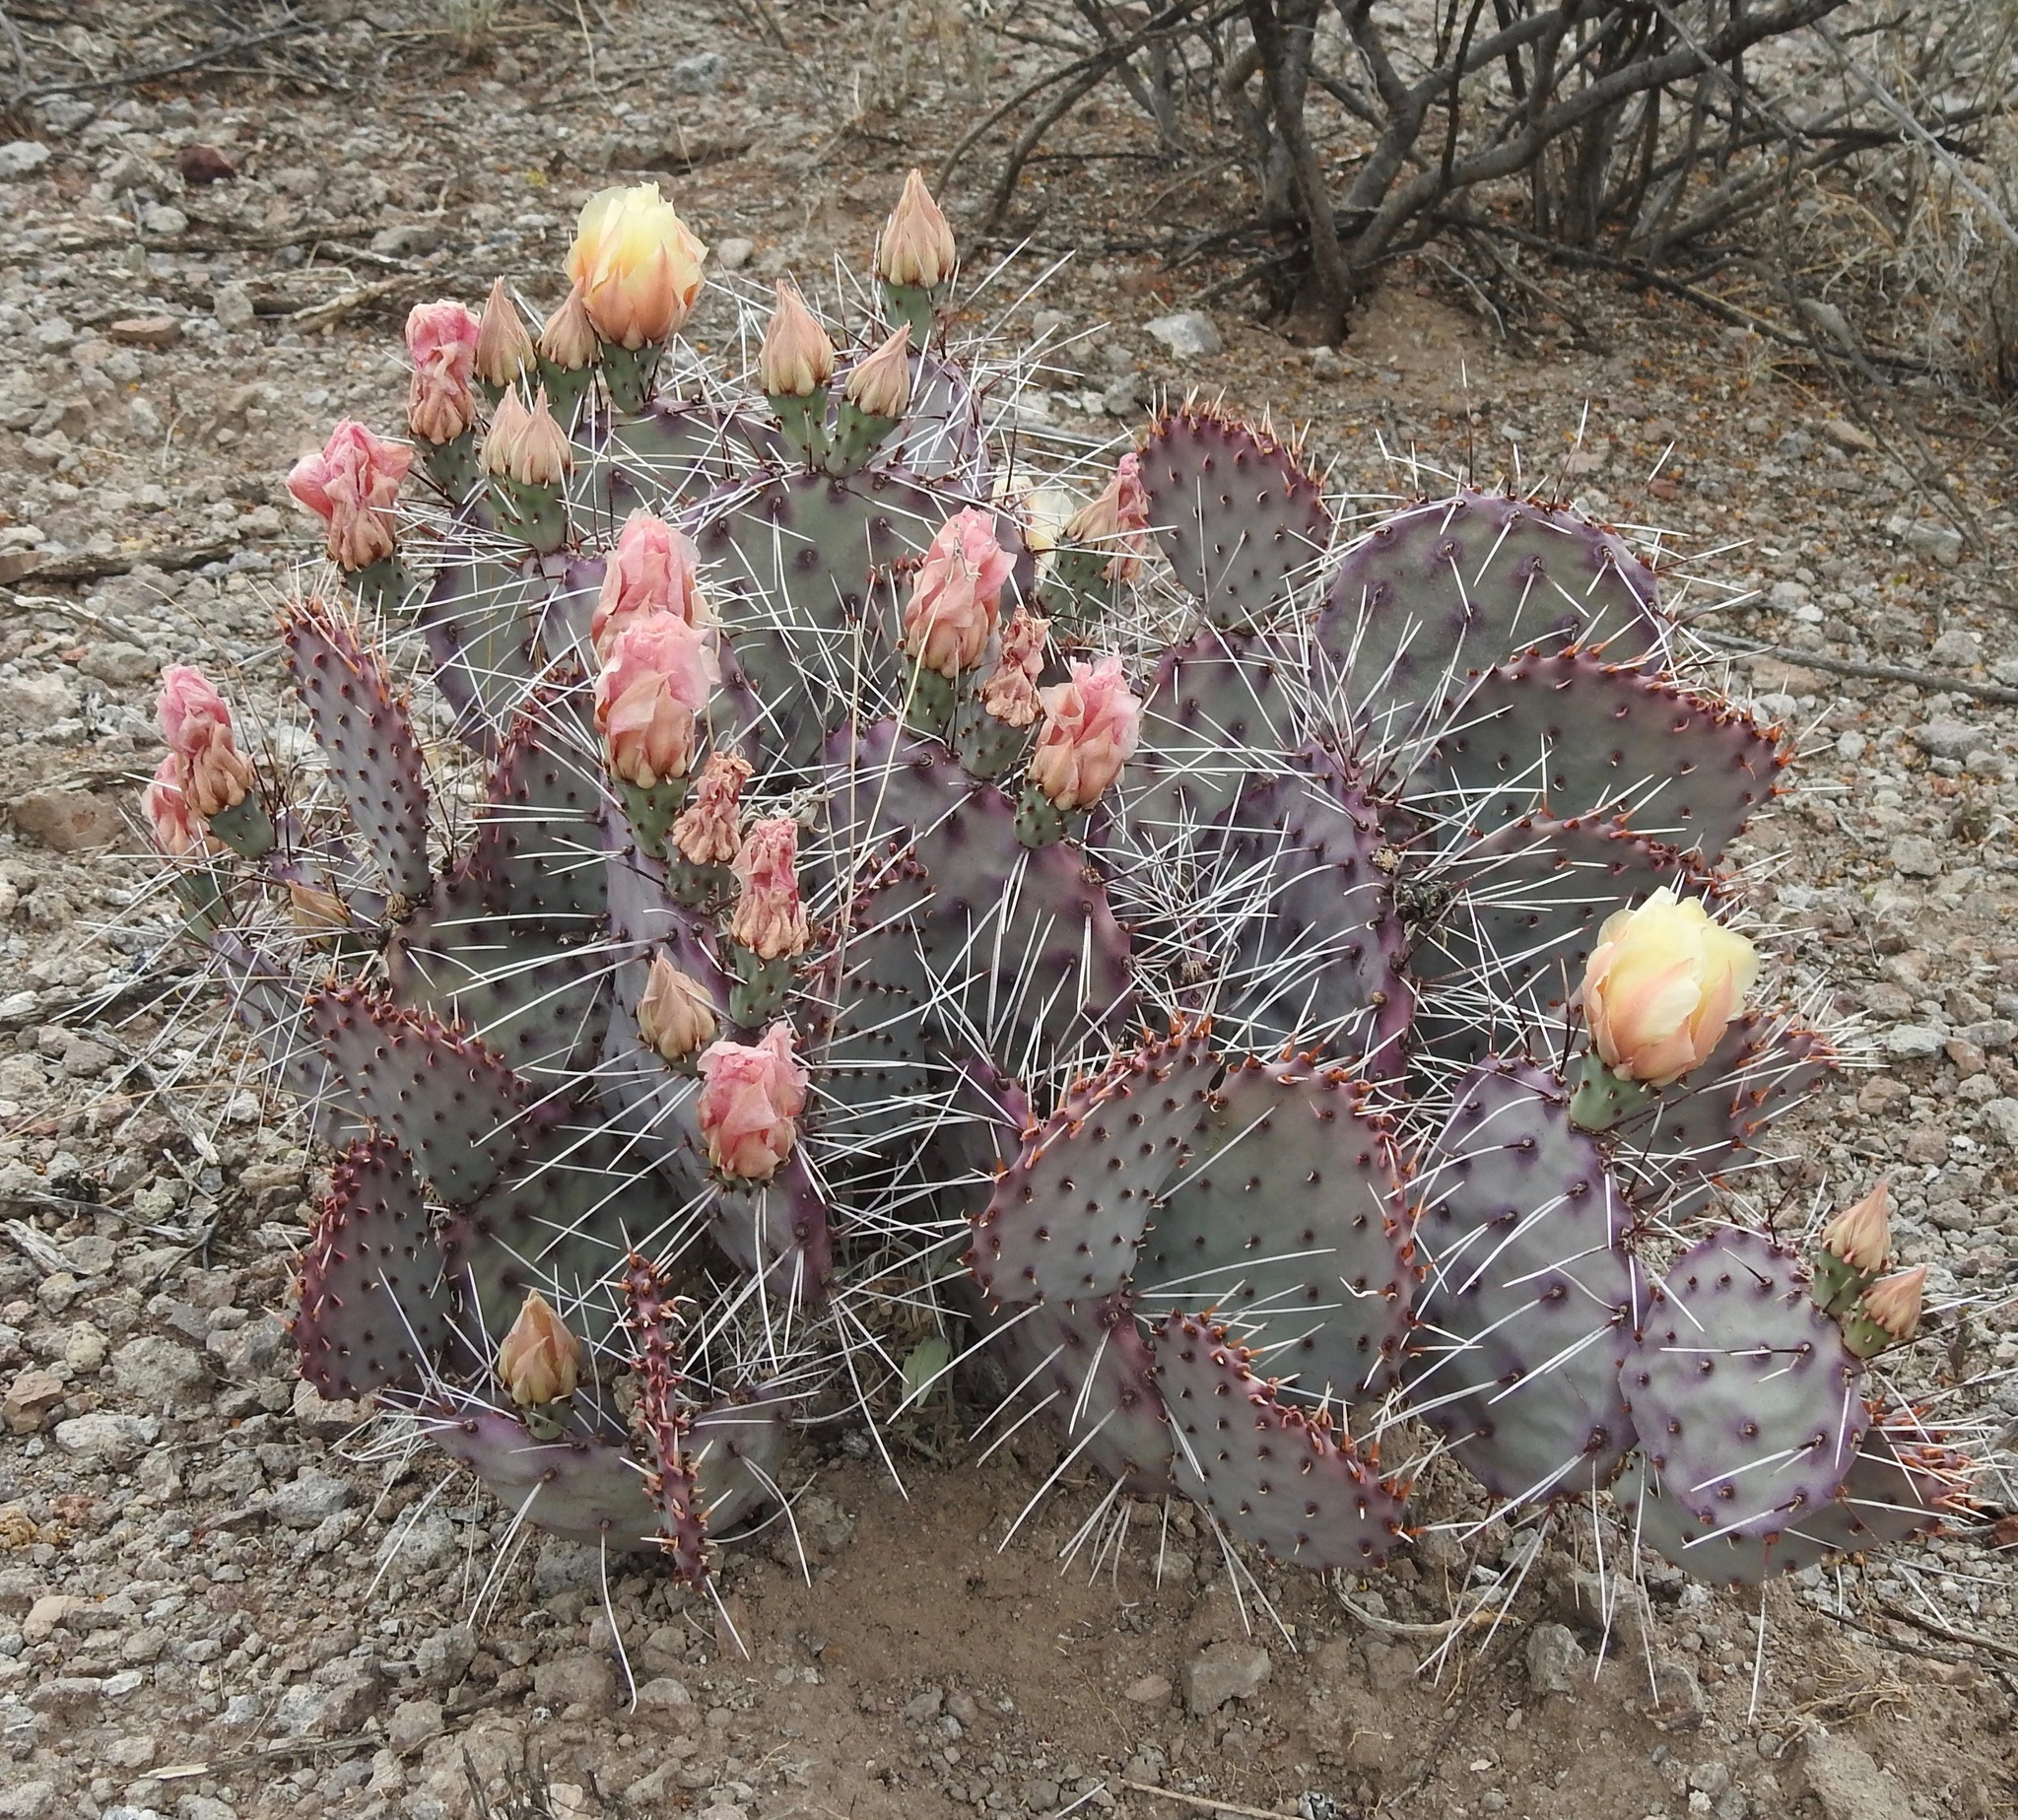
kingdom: Plantae
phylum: Tracheophyta
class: Magnoliopsida
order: Caryophyllales
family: Cactaceae
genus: Opuntia
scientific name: Opuntia phaeacantha
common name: New mexico prickly-pear
